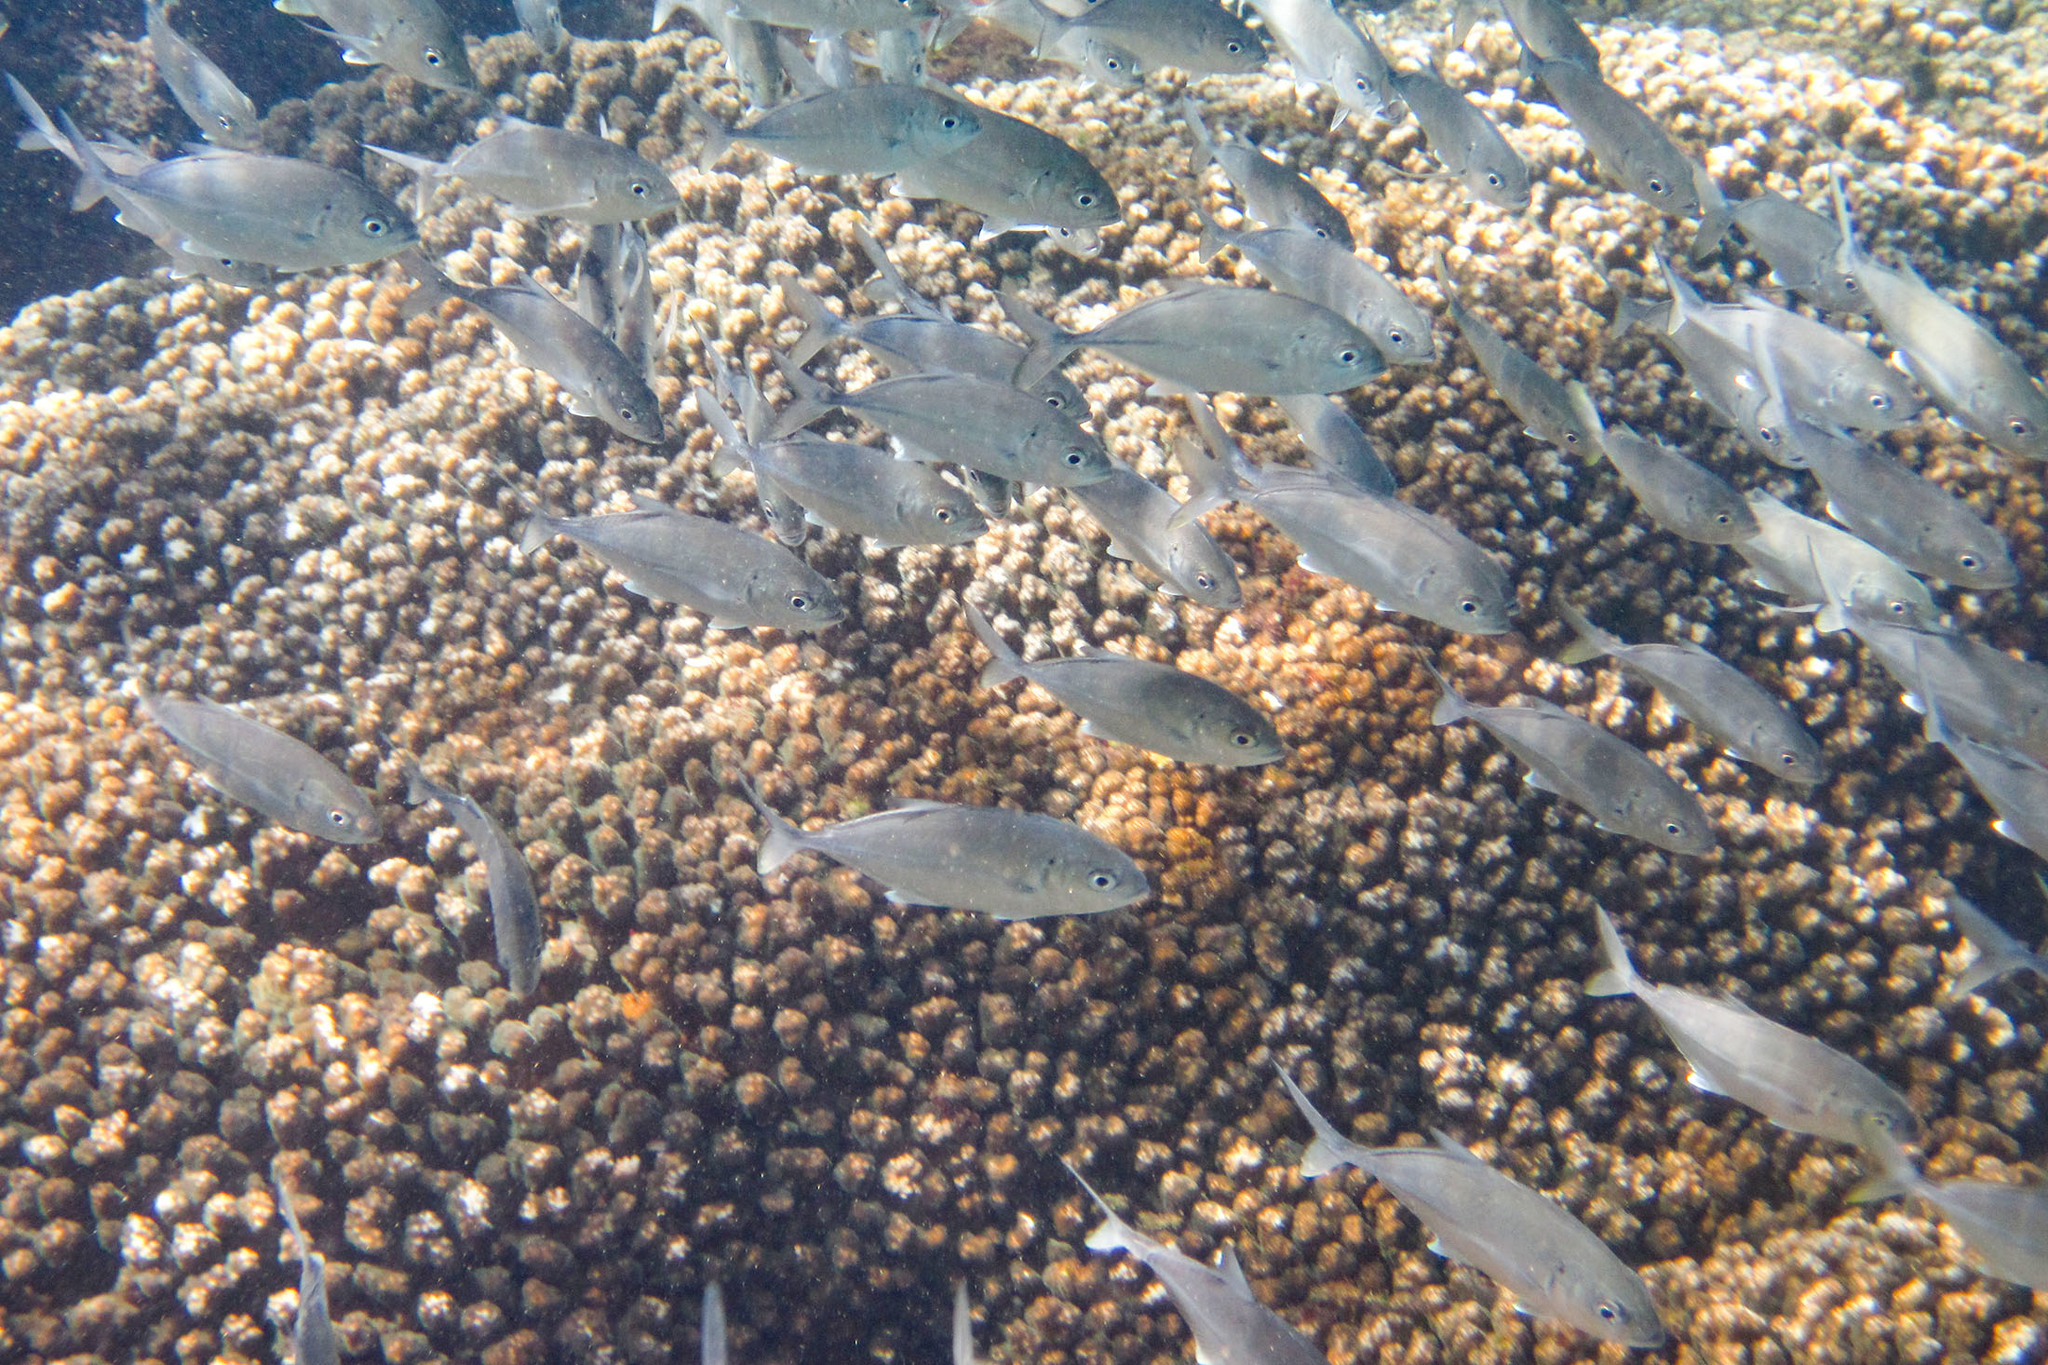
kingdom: Animalia
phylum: Chordata
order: Perciformes
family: Carangidae
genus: Caranx
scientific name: Caranx sexfasciatus
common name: Bigeye trevally
